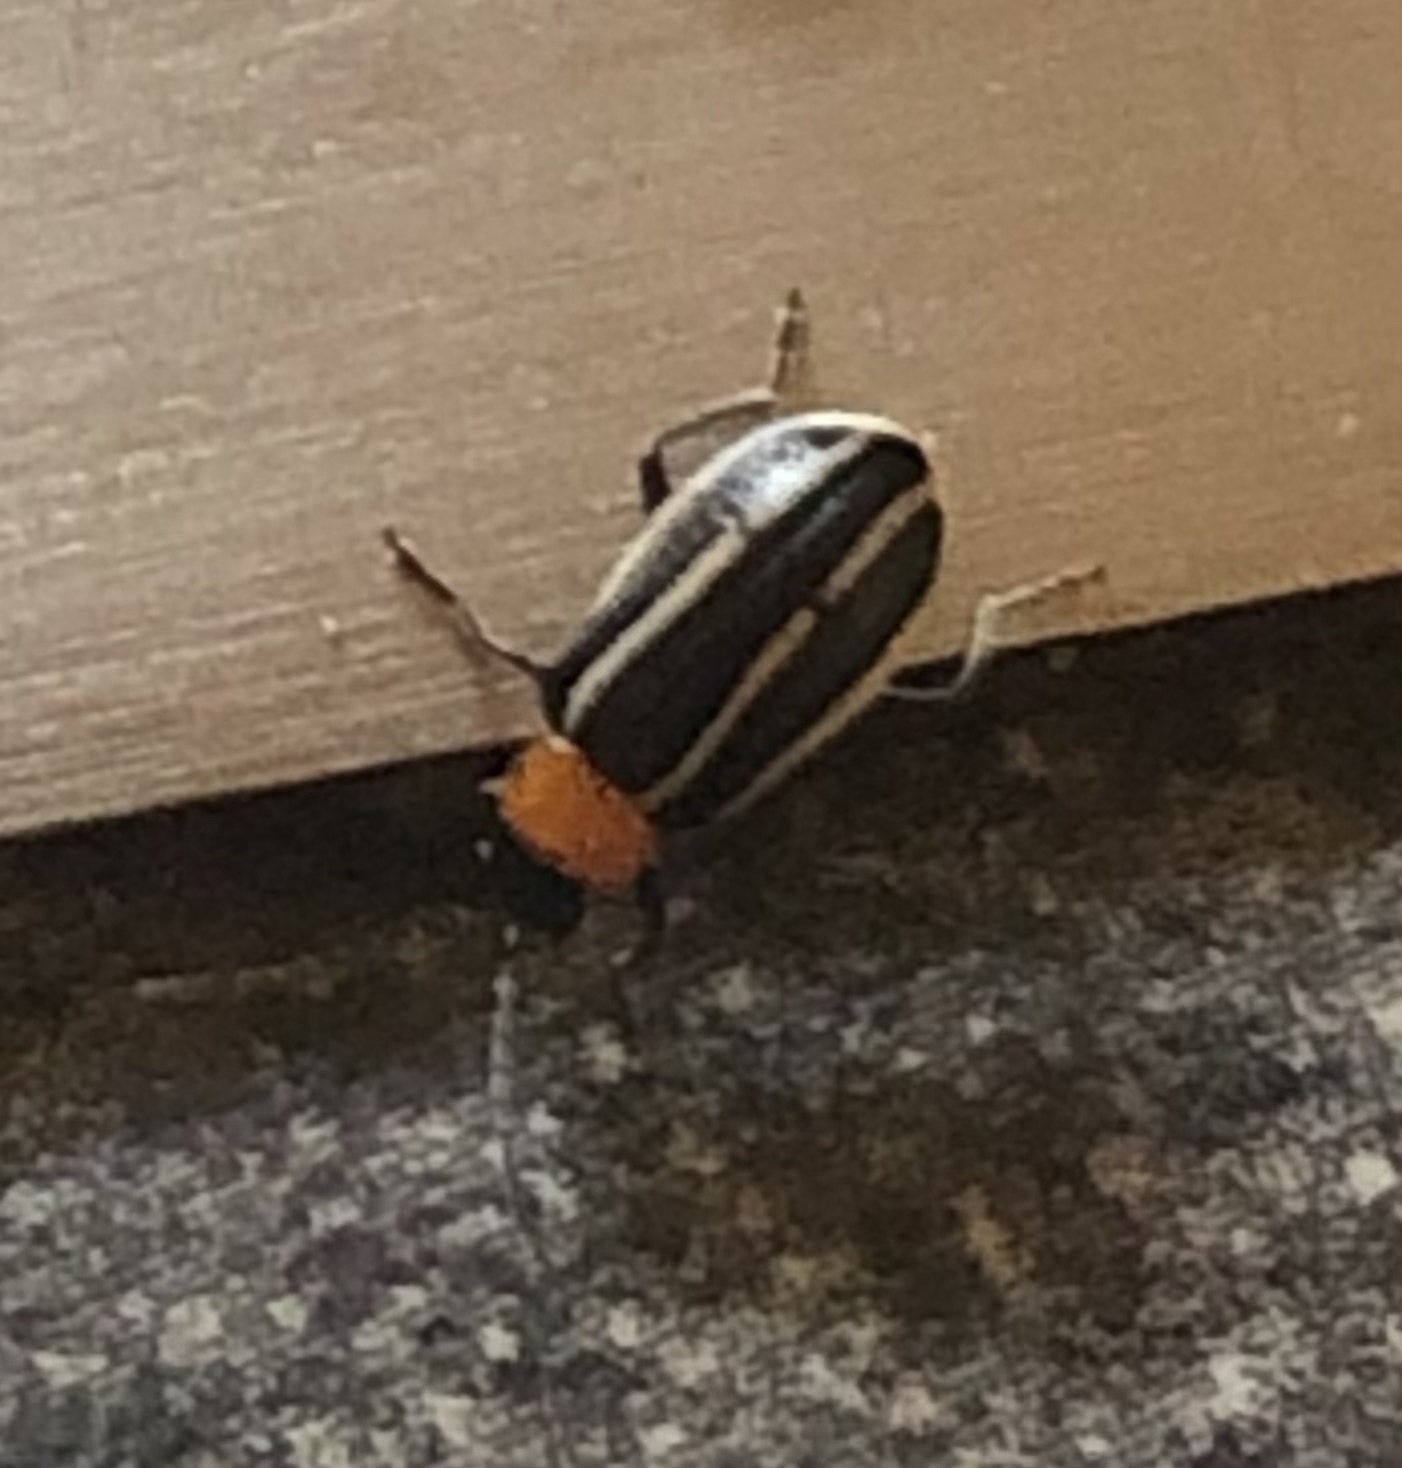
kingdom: Animalia
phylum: Arthropoda
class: Insecta
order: Coleoptera
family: Chrysomelidae
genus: Acalymma
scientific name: Acalymma vinctum
